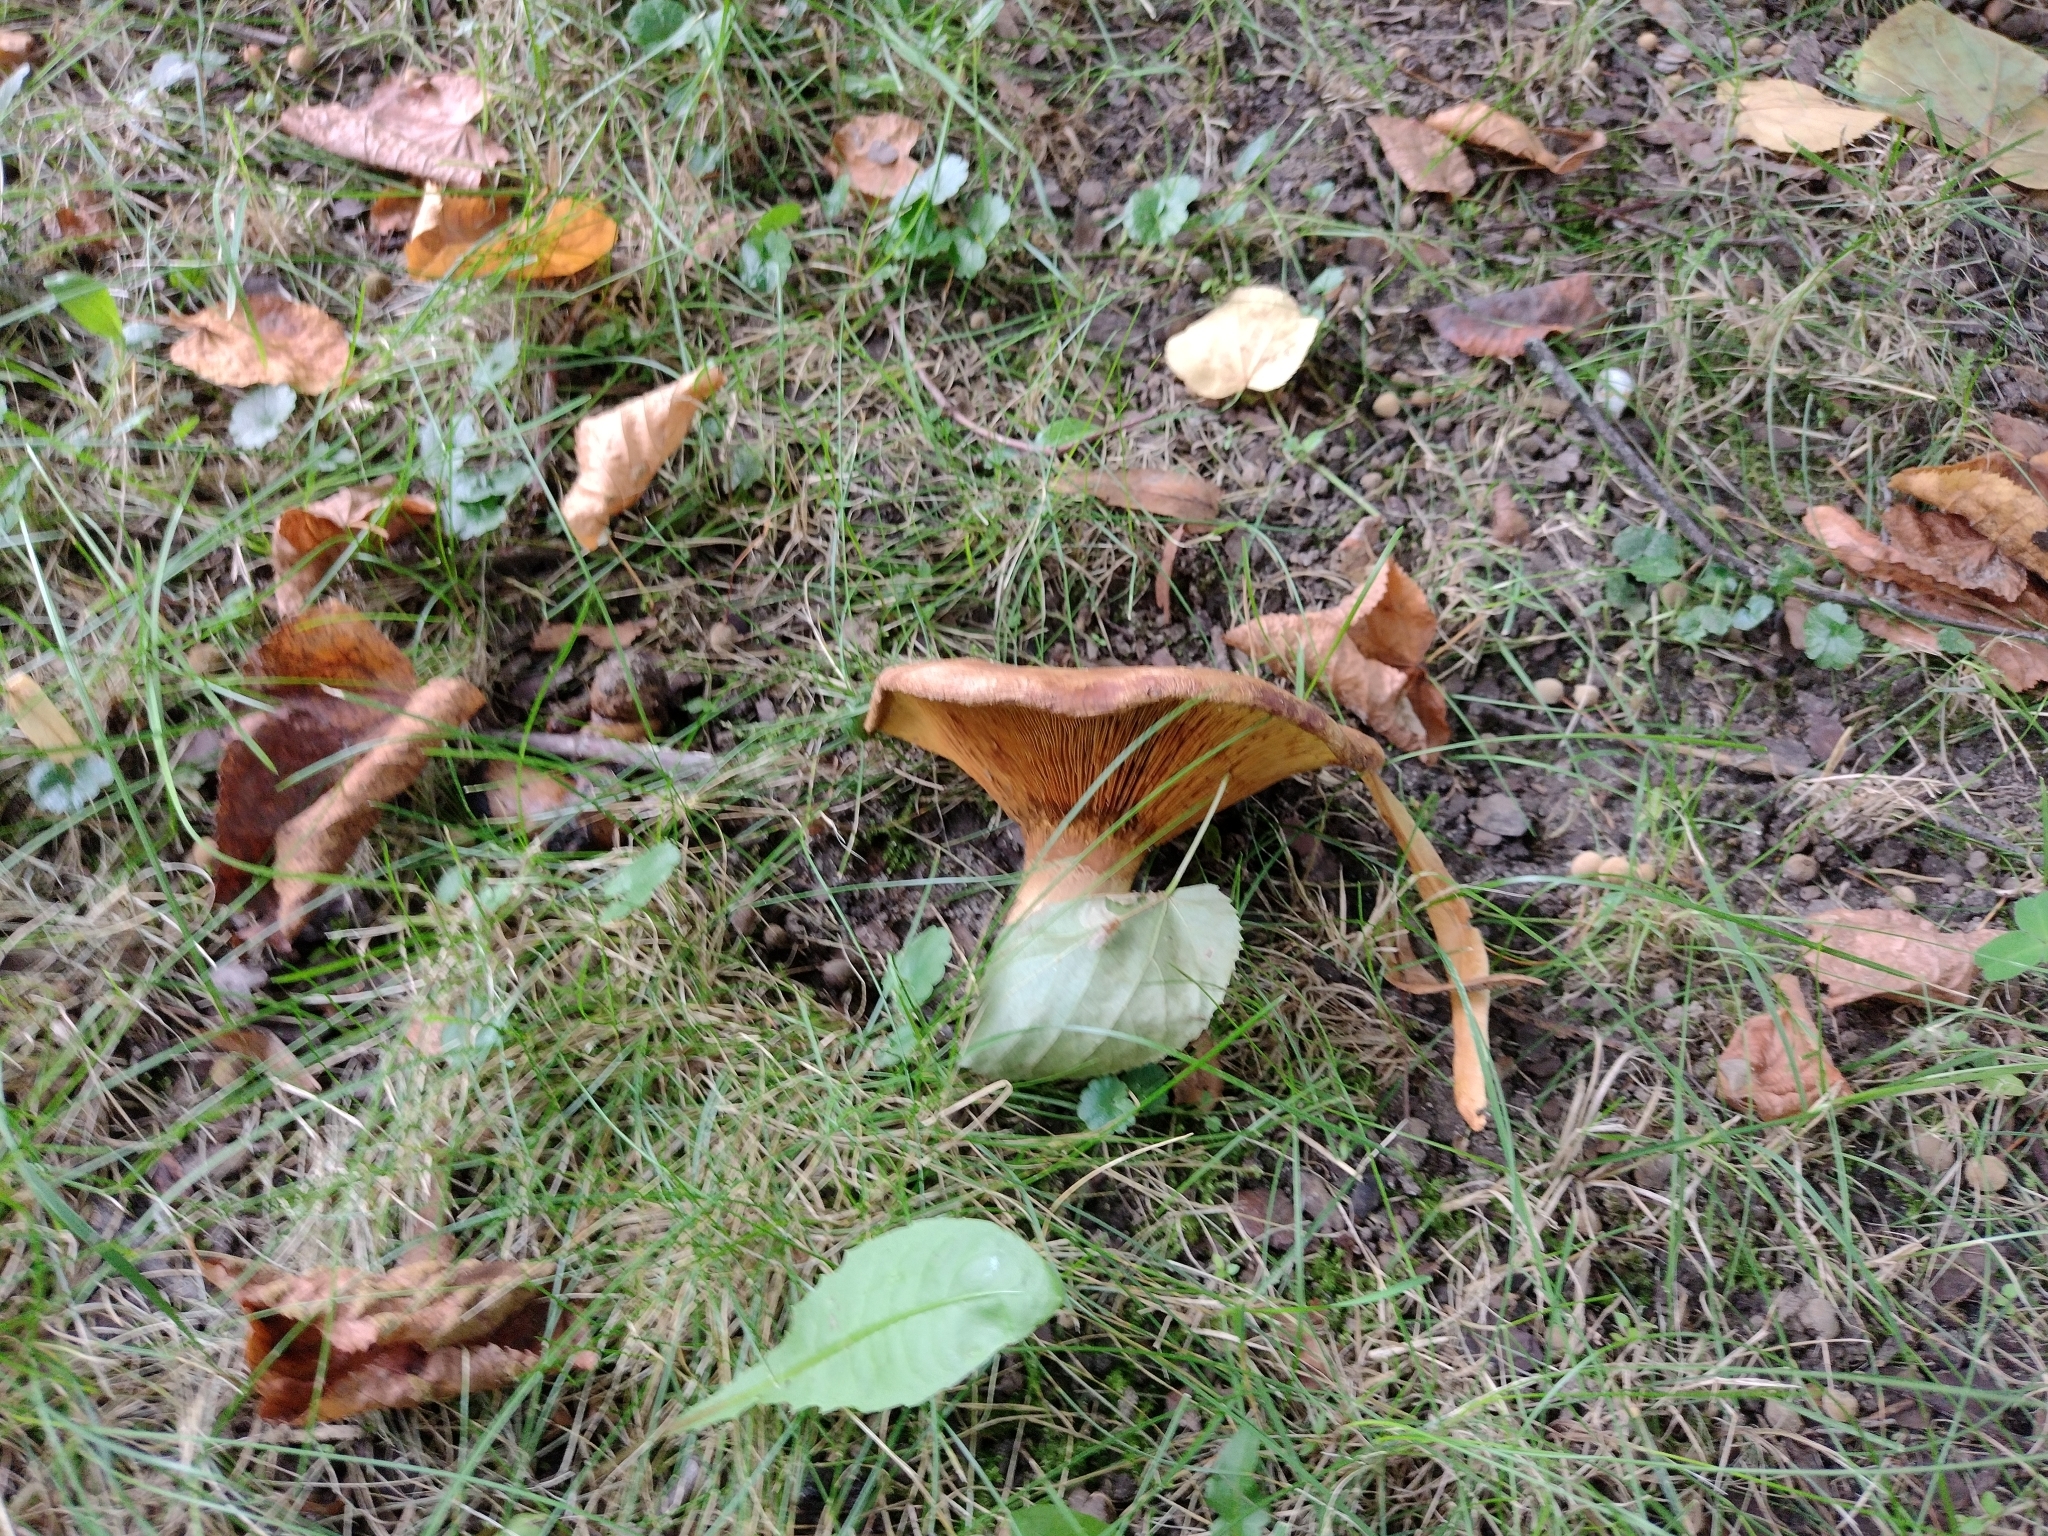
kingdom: Fungi
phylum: Basidiomycota
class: Agaricomycetes
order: Boletales
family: Paxillaceae
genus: Paxillus
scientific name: Paxillus involutus
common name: Brown roll rim
